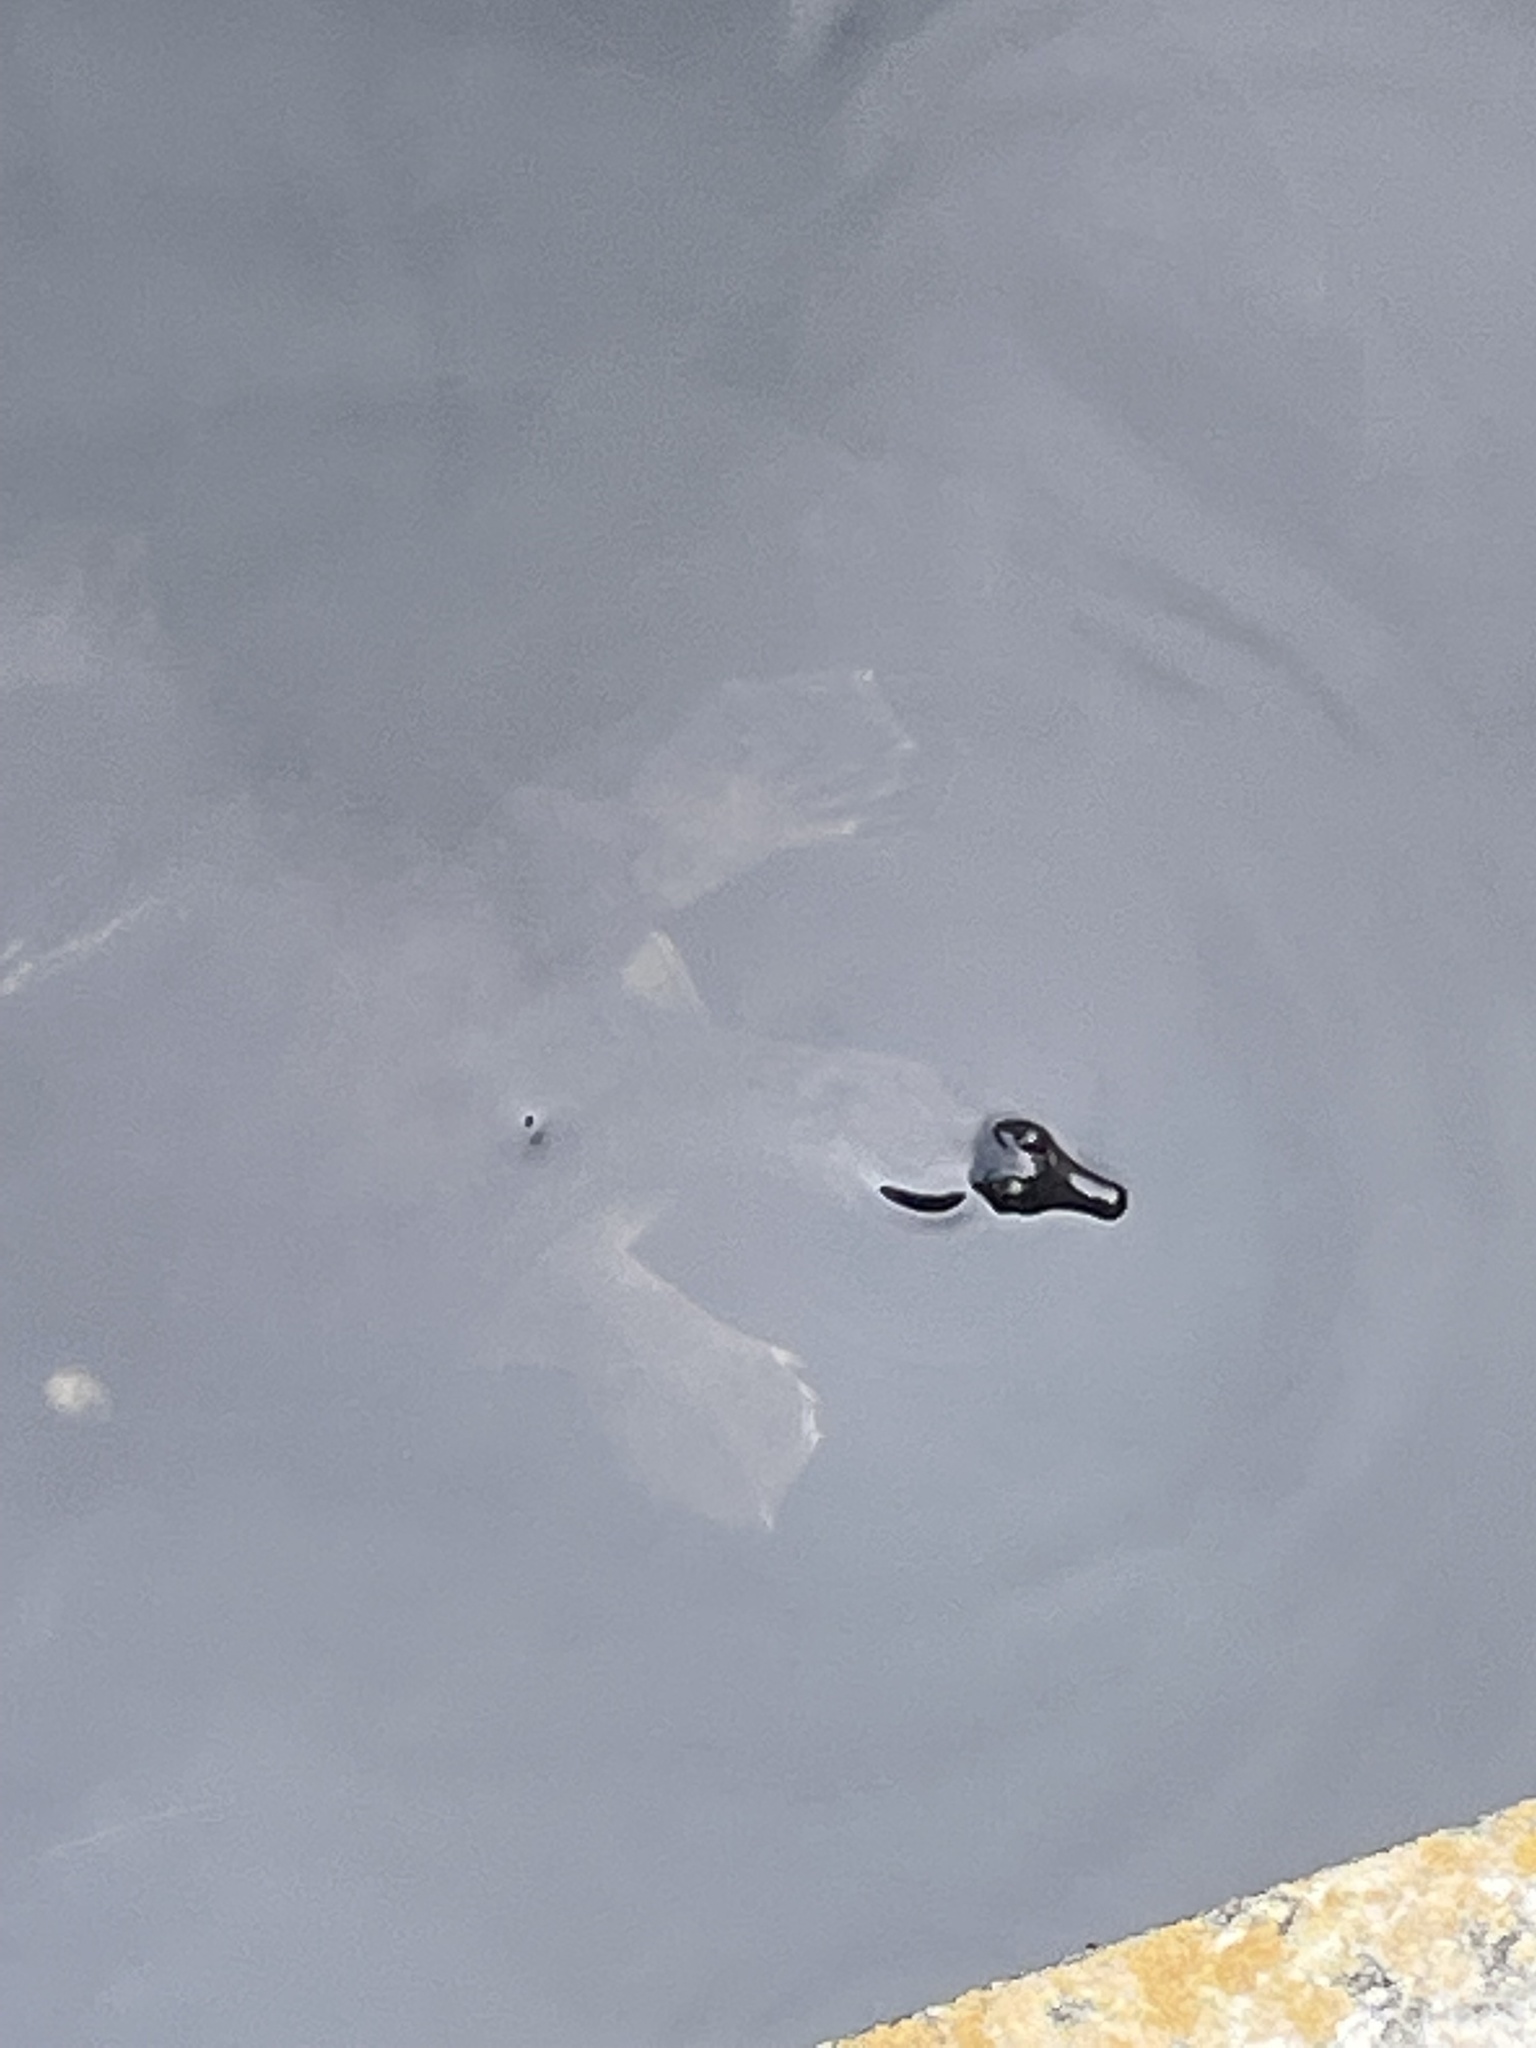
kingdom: Animalia
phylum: Chordata
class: Testudines
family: Trionychidae
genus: Apalone
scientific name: Apalone ferox
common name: Florida softshell turtle
